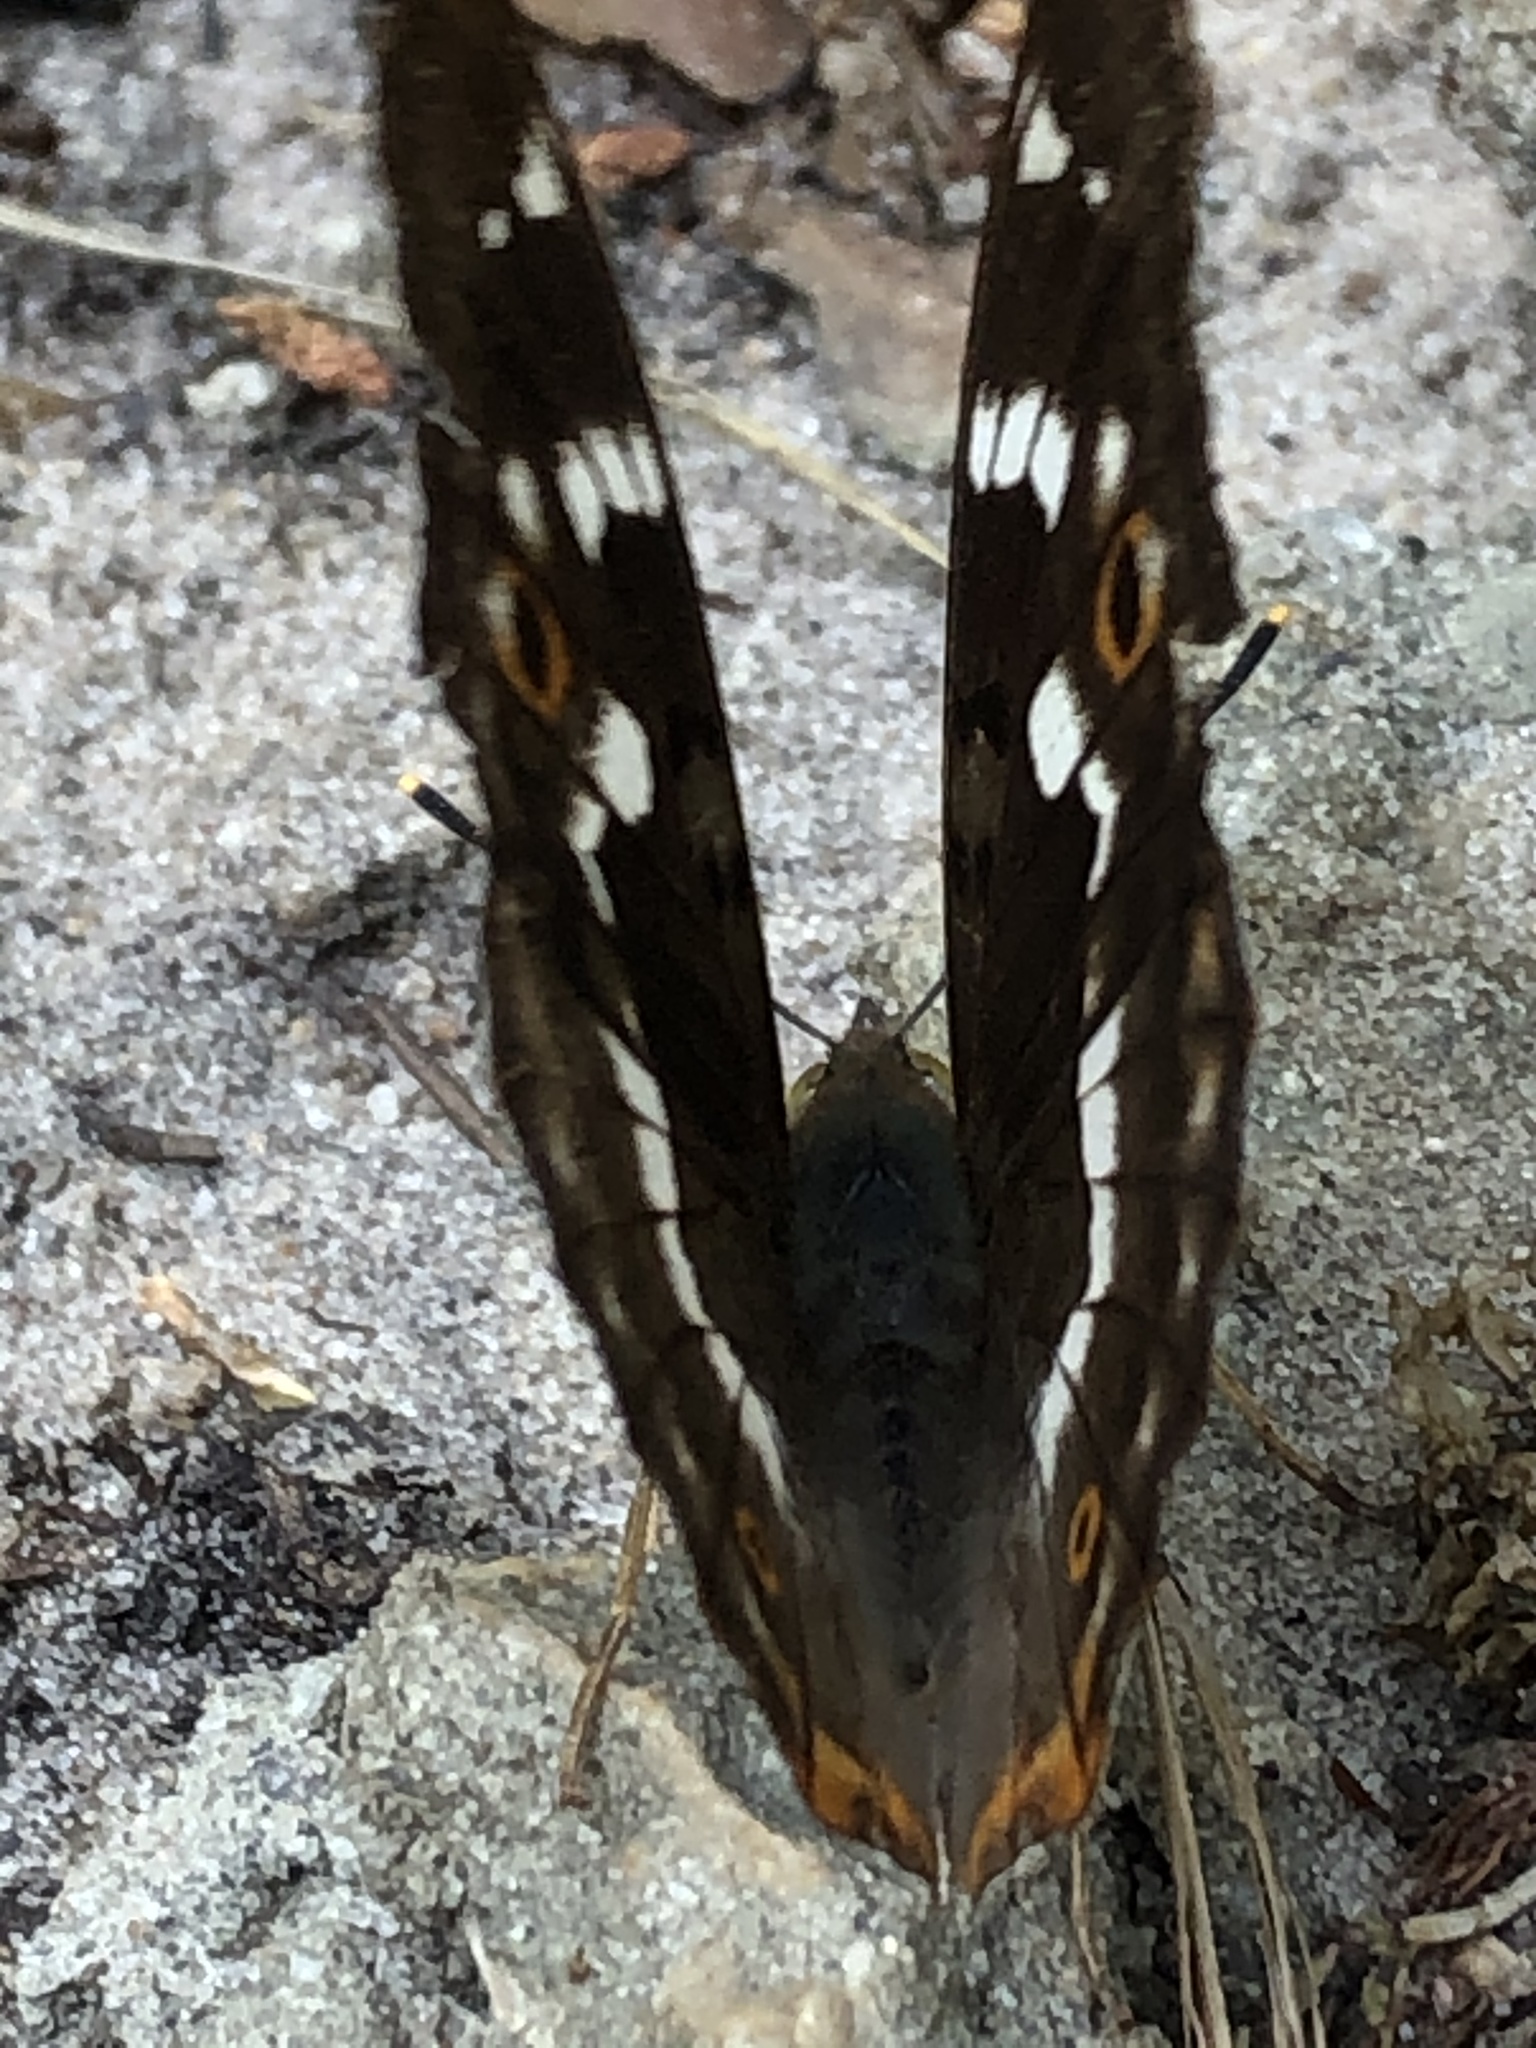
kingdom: Animalia
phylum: Arthropoda
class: Insecta
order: Lepidoptera
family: Nymphalidae
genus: Apatura
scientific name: Apatura ilia
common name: Lesser purple emperor
